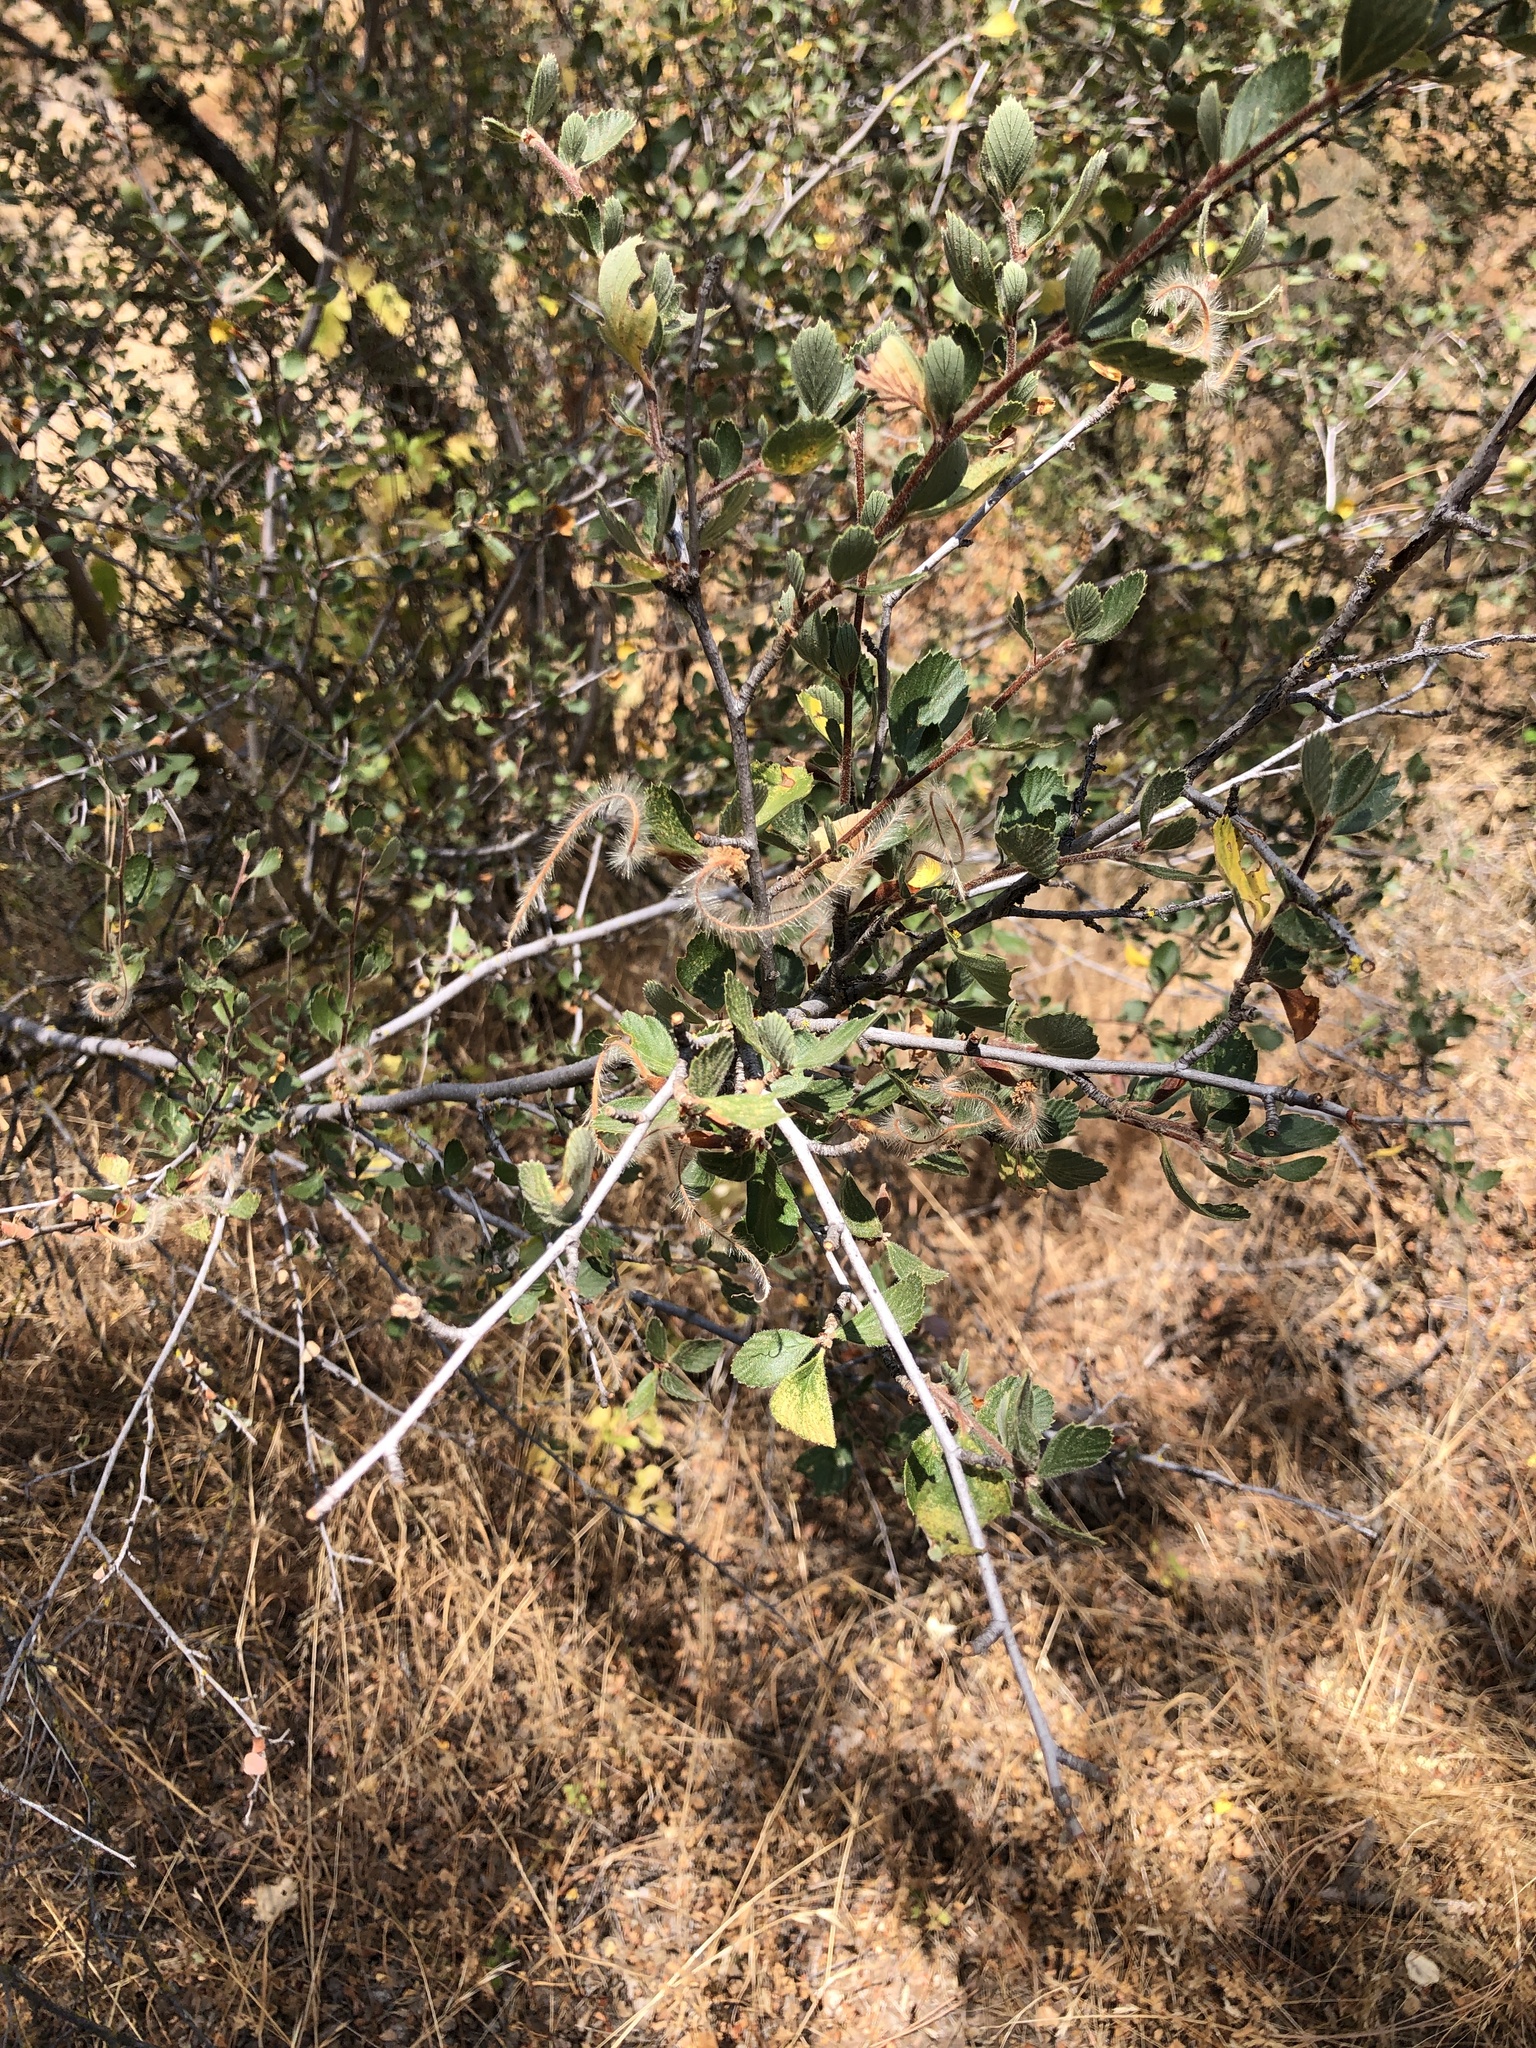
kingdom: Plantae
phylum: Tracheophyta
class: Magnoliopsida
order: Rosales
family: Rosaceae
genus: Cercocarpus
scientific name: Cercocarpus betuloides
